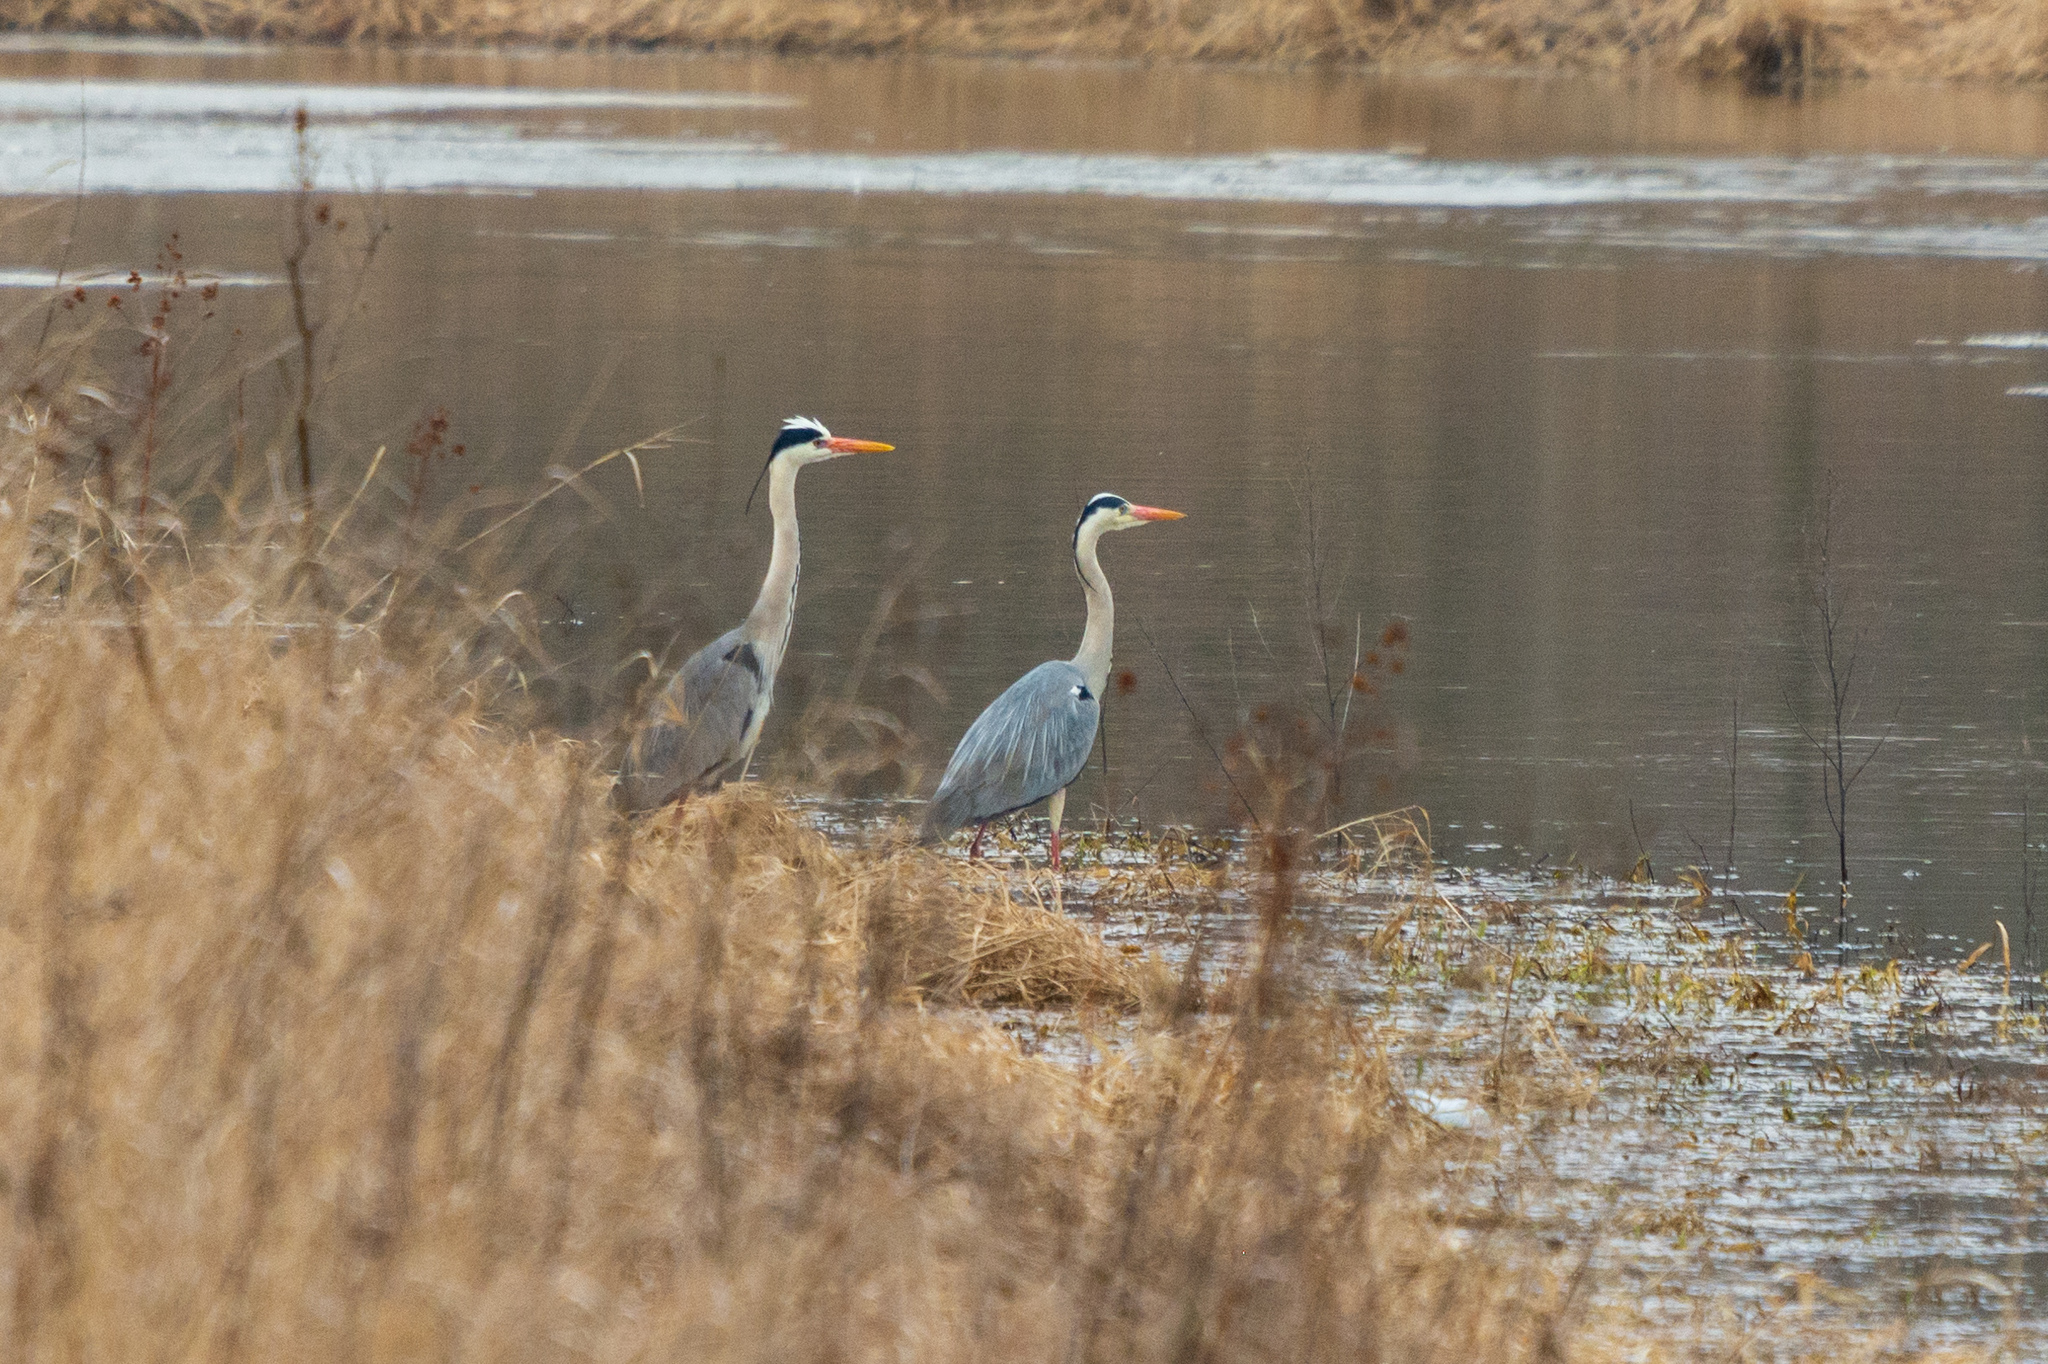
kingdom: Animalia
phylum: Chordata
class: Aves
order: Pelecaniformes
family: Ardeidae
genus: Ardea
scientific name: Ardea cinerea
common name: Grey heron
